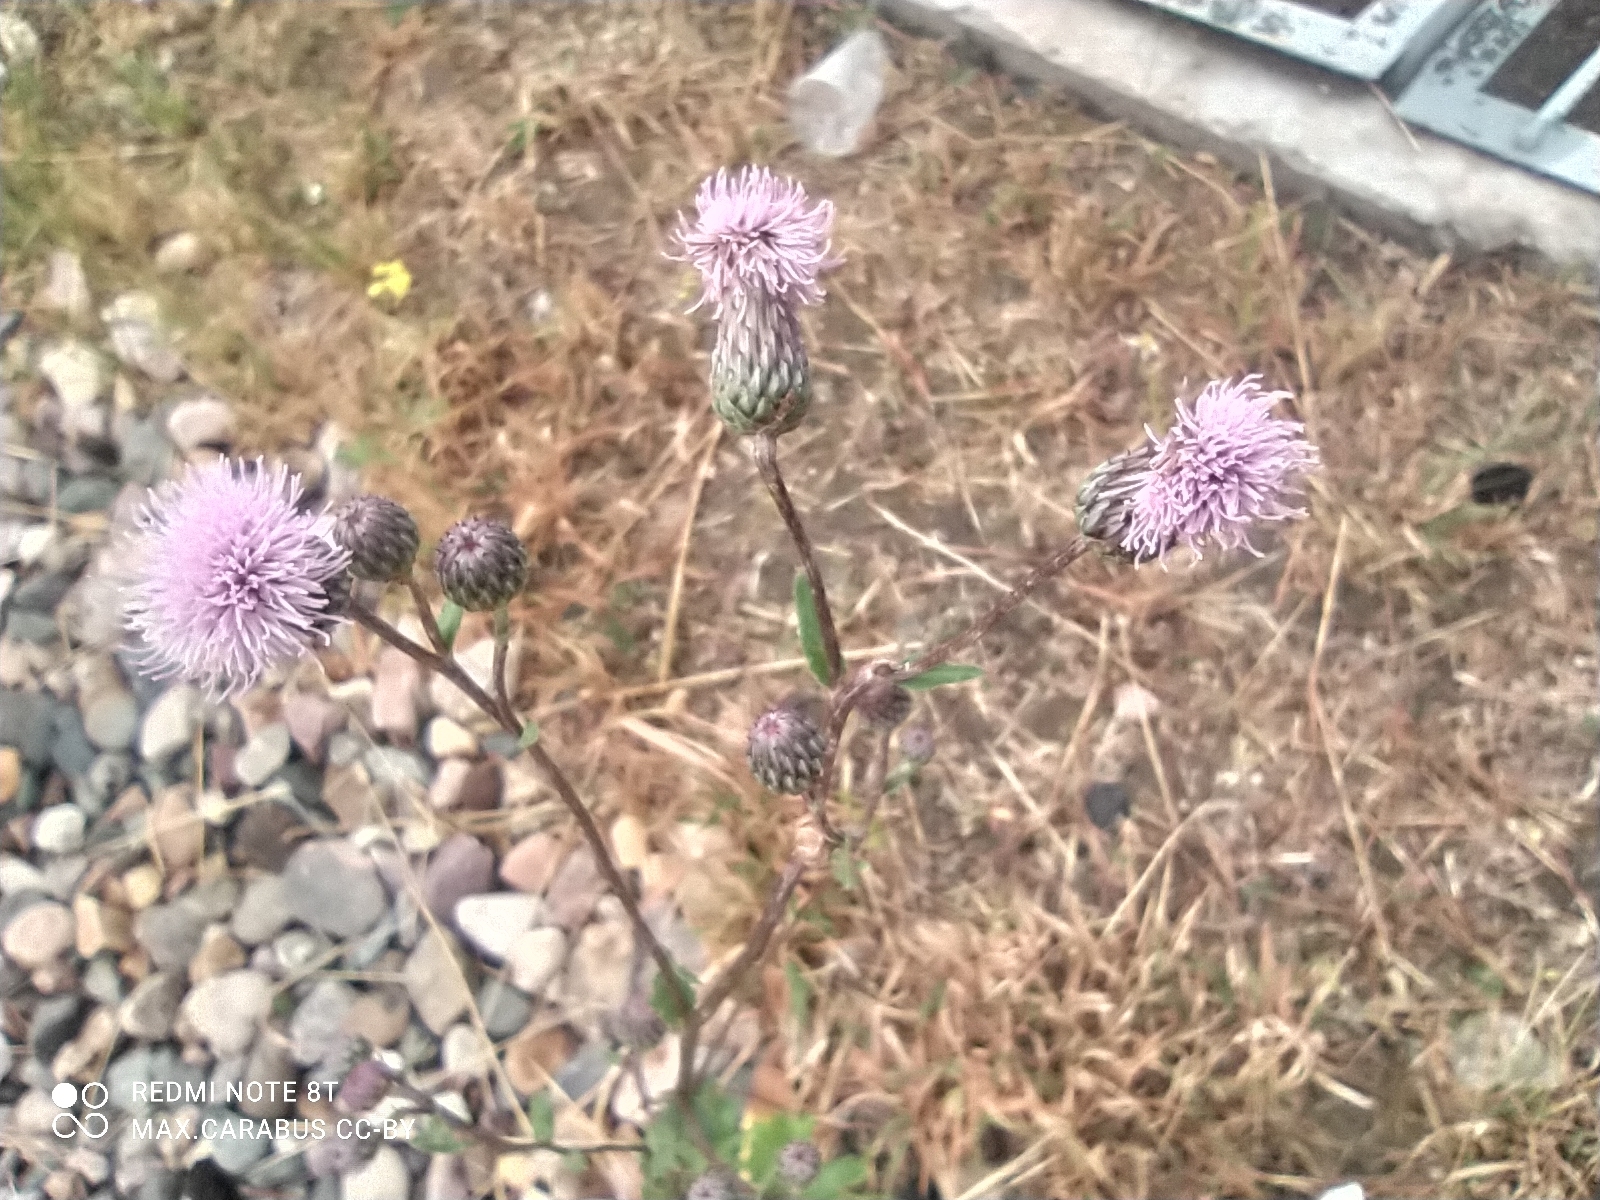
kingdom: Plantae
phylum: Tracheophyta
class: Magnoliopsida
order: Asterales
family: Asteraceae
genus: Cirsium
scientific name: Cirsium arvense
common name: Creeping thistle
